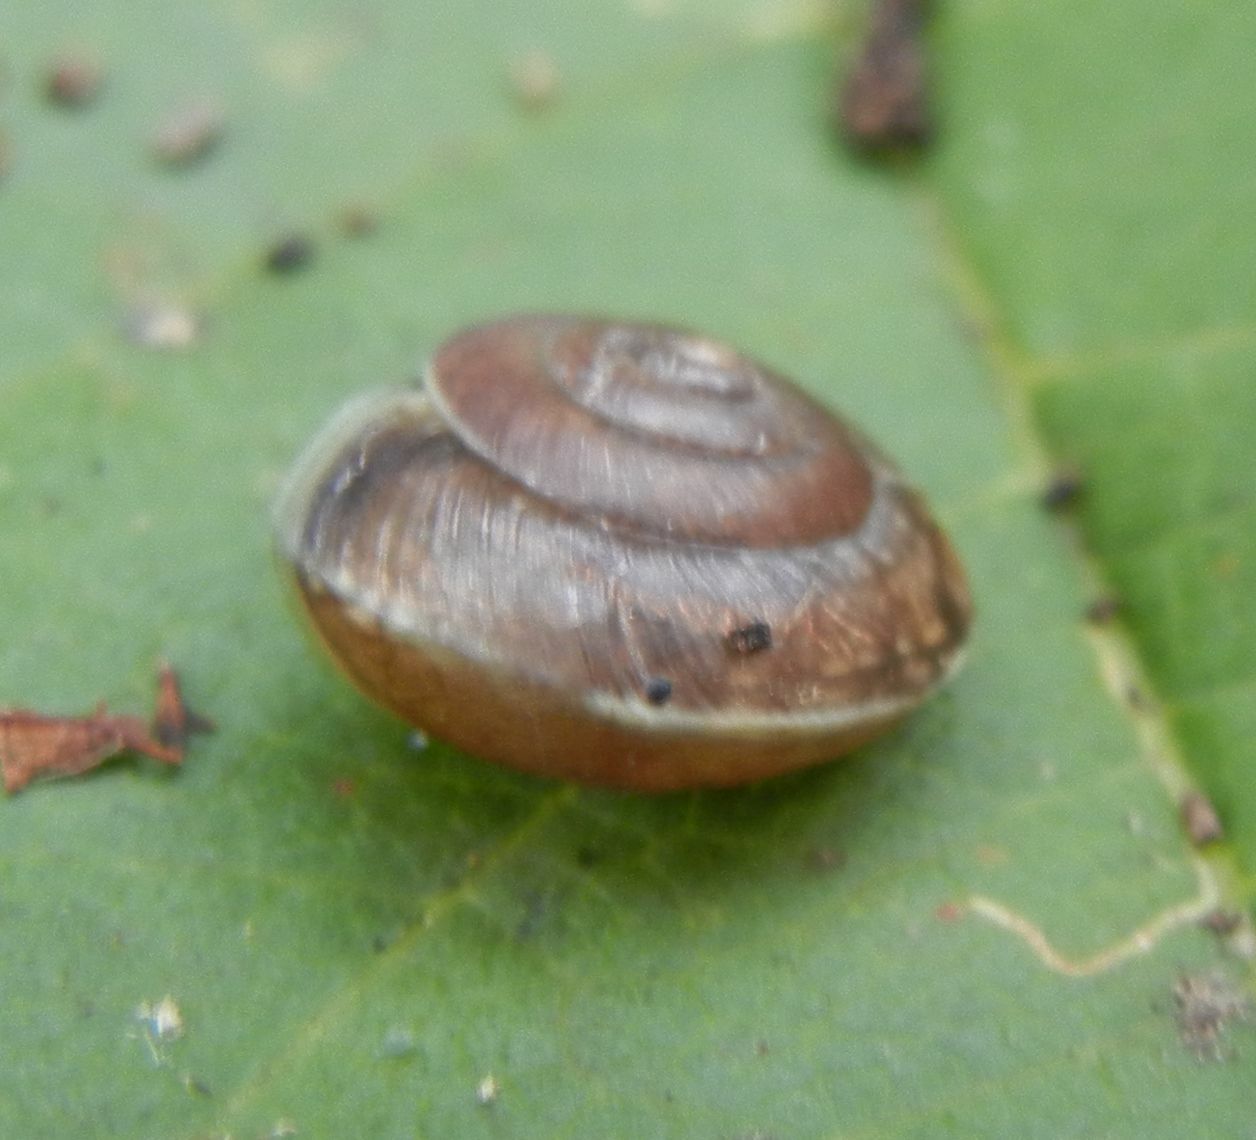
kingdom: Animalia
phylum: Mollusca
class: Gastropoda
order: Stylommatophora
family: Hygromiidae
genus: Hygromia
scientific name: Hygromia cinctella
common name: Girdled snail
